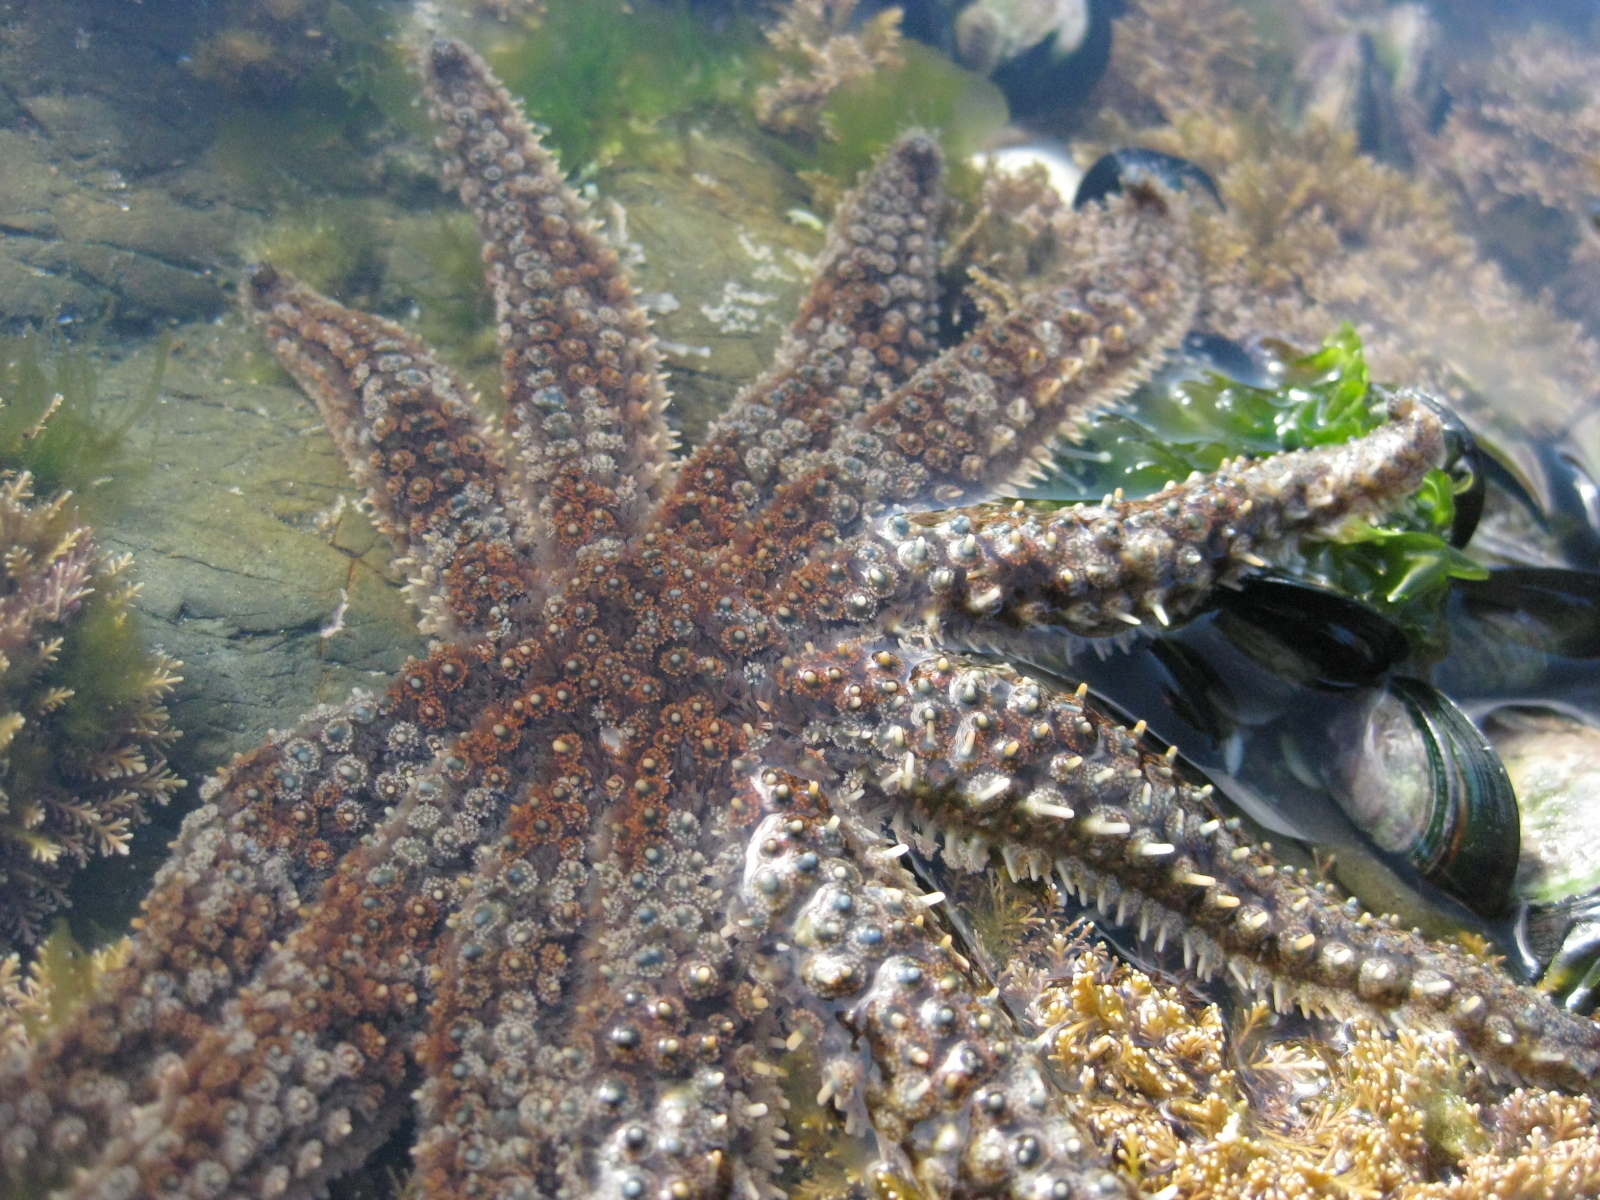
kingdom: Animalia
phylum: Echinodermata
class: Asteroidea
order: Forcipulatida
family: Asteriidae
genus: Coscinasterias
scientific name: Coscinasterias muricata
